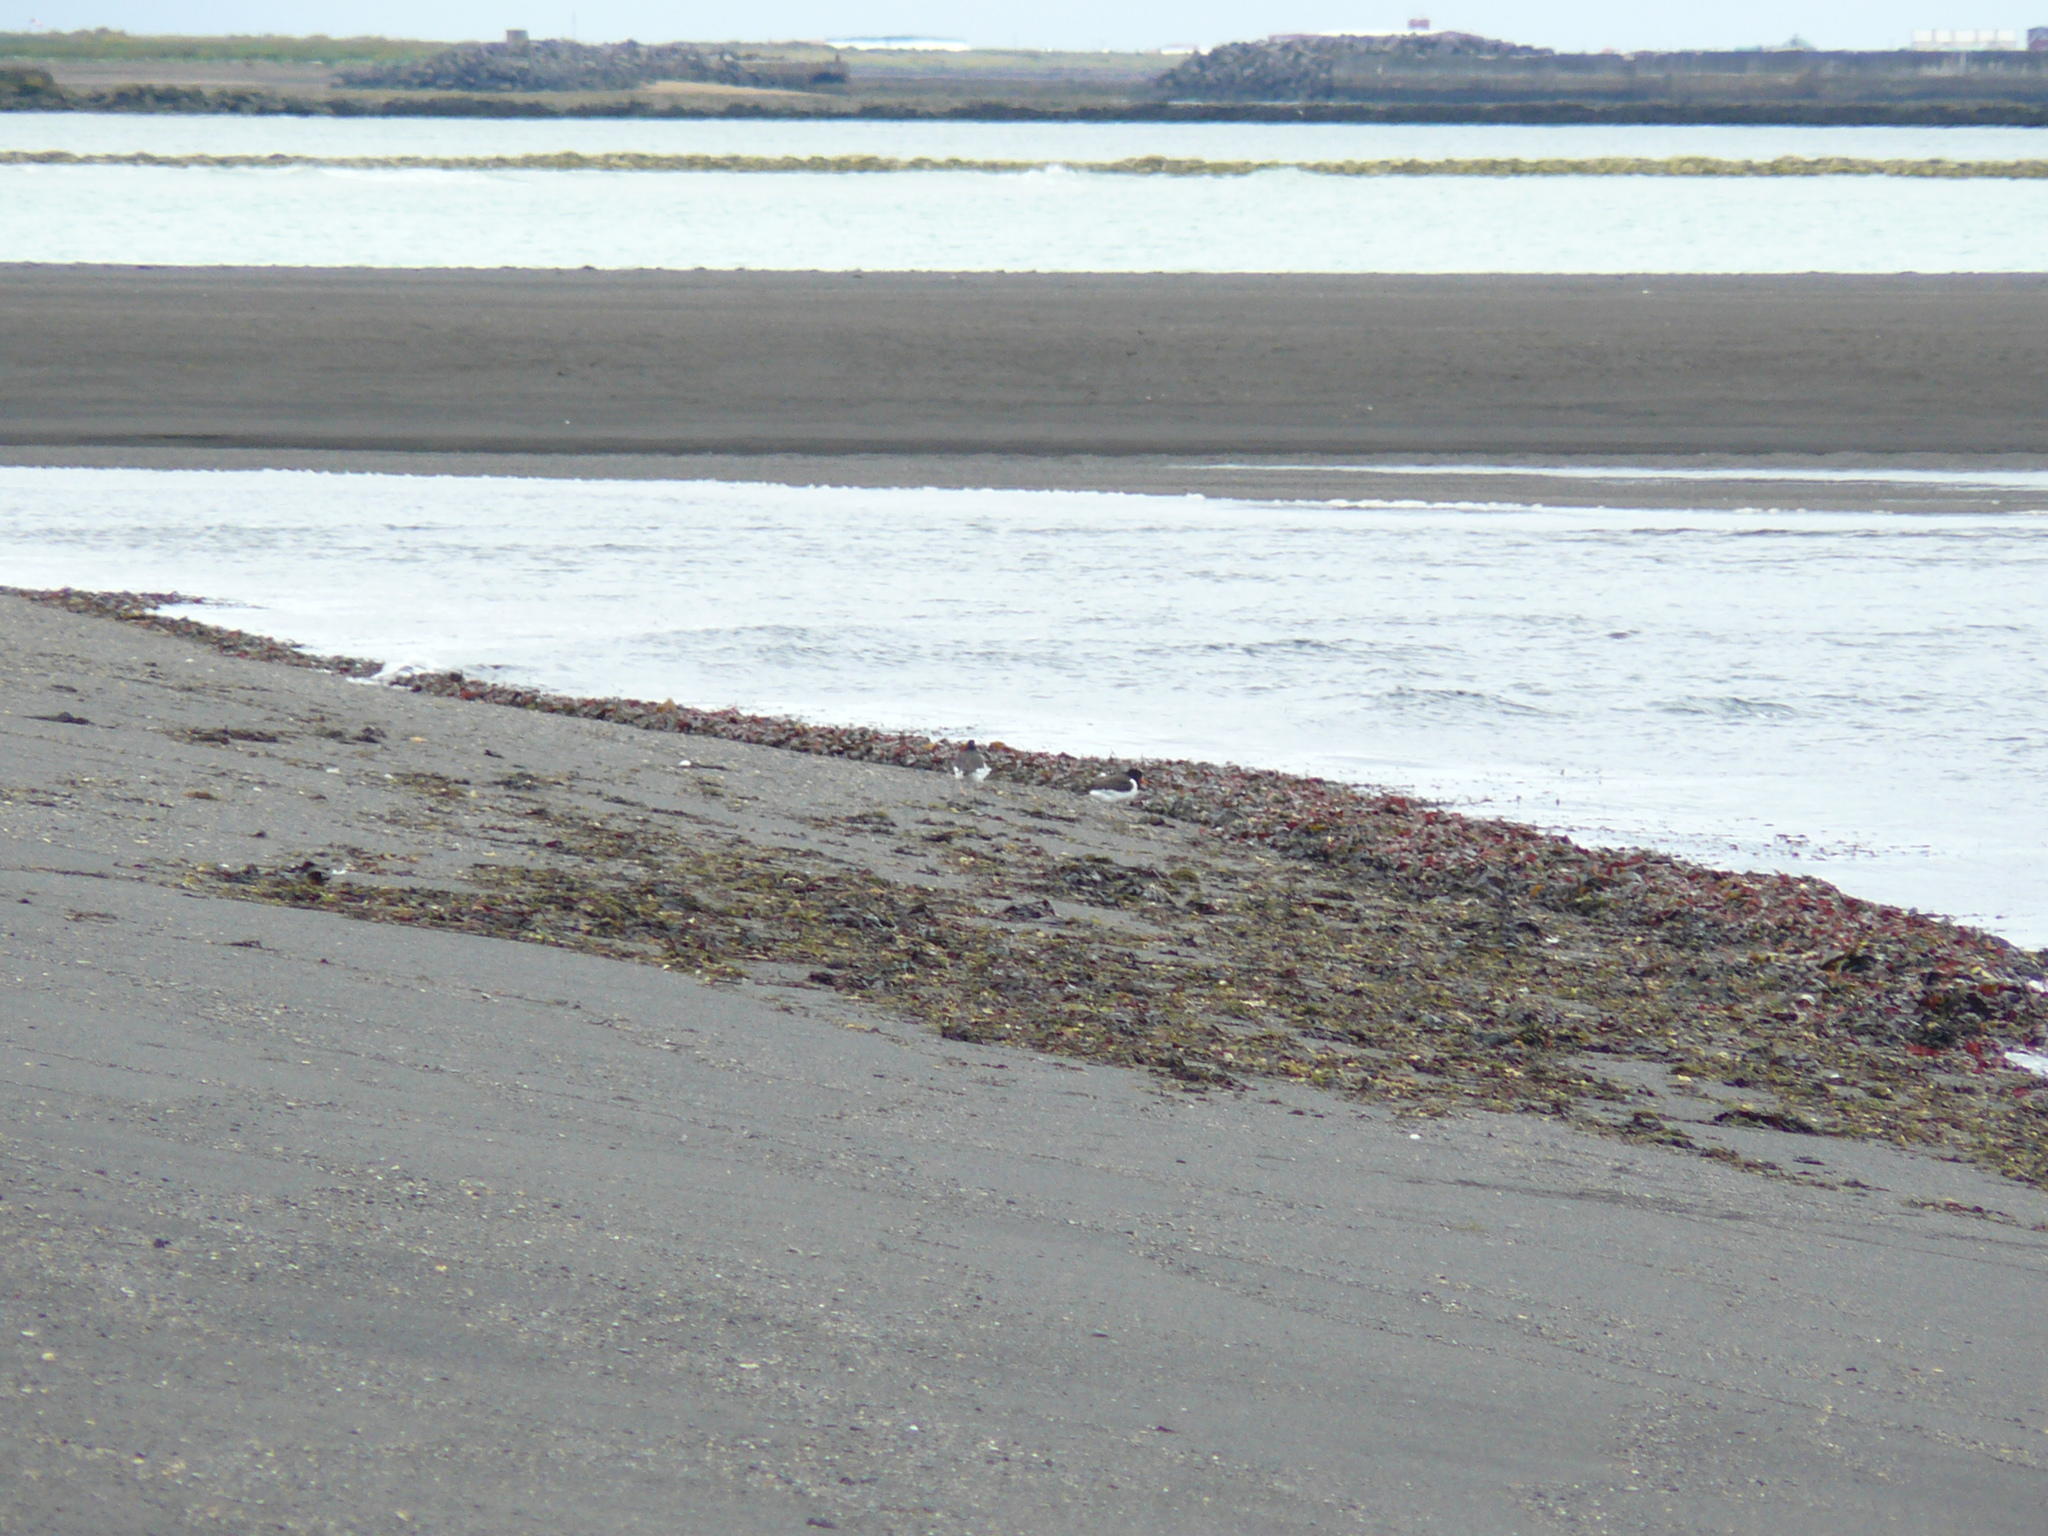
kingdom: Animalia
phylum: Chordata
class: Aves
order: Charadriiformes
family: Haematopodidae
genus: Haematopus
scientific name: Haematopus ostralegus
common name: Eurasian oystercatcher
